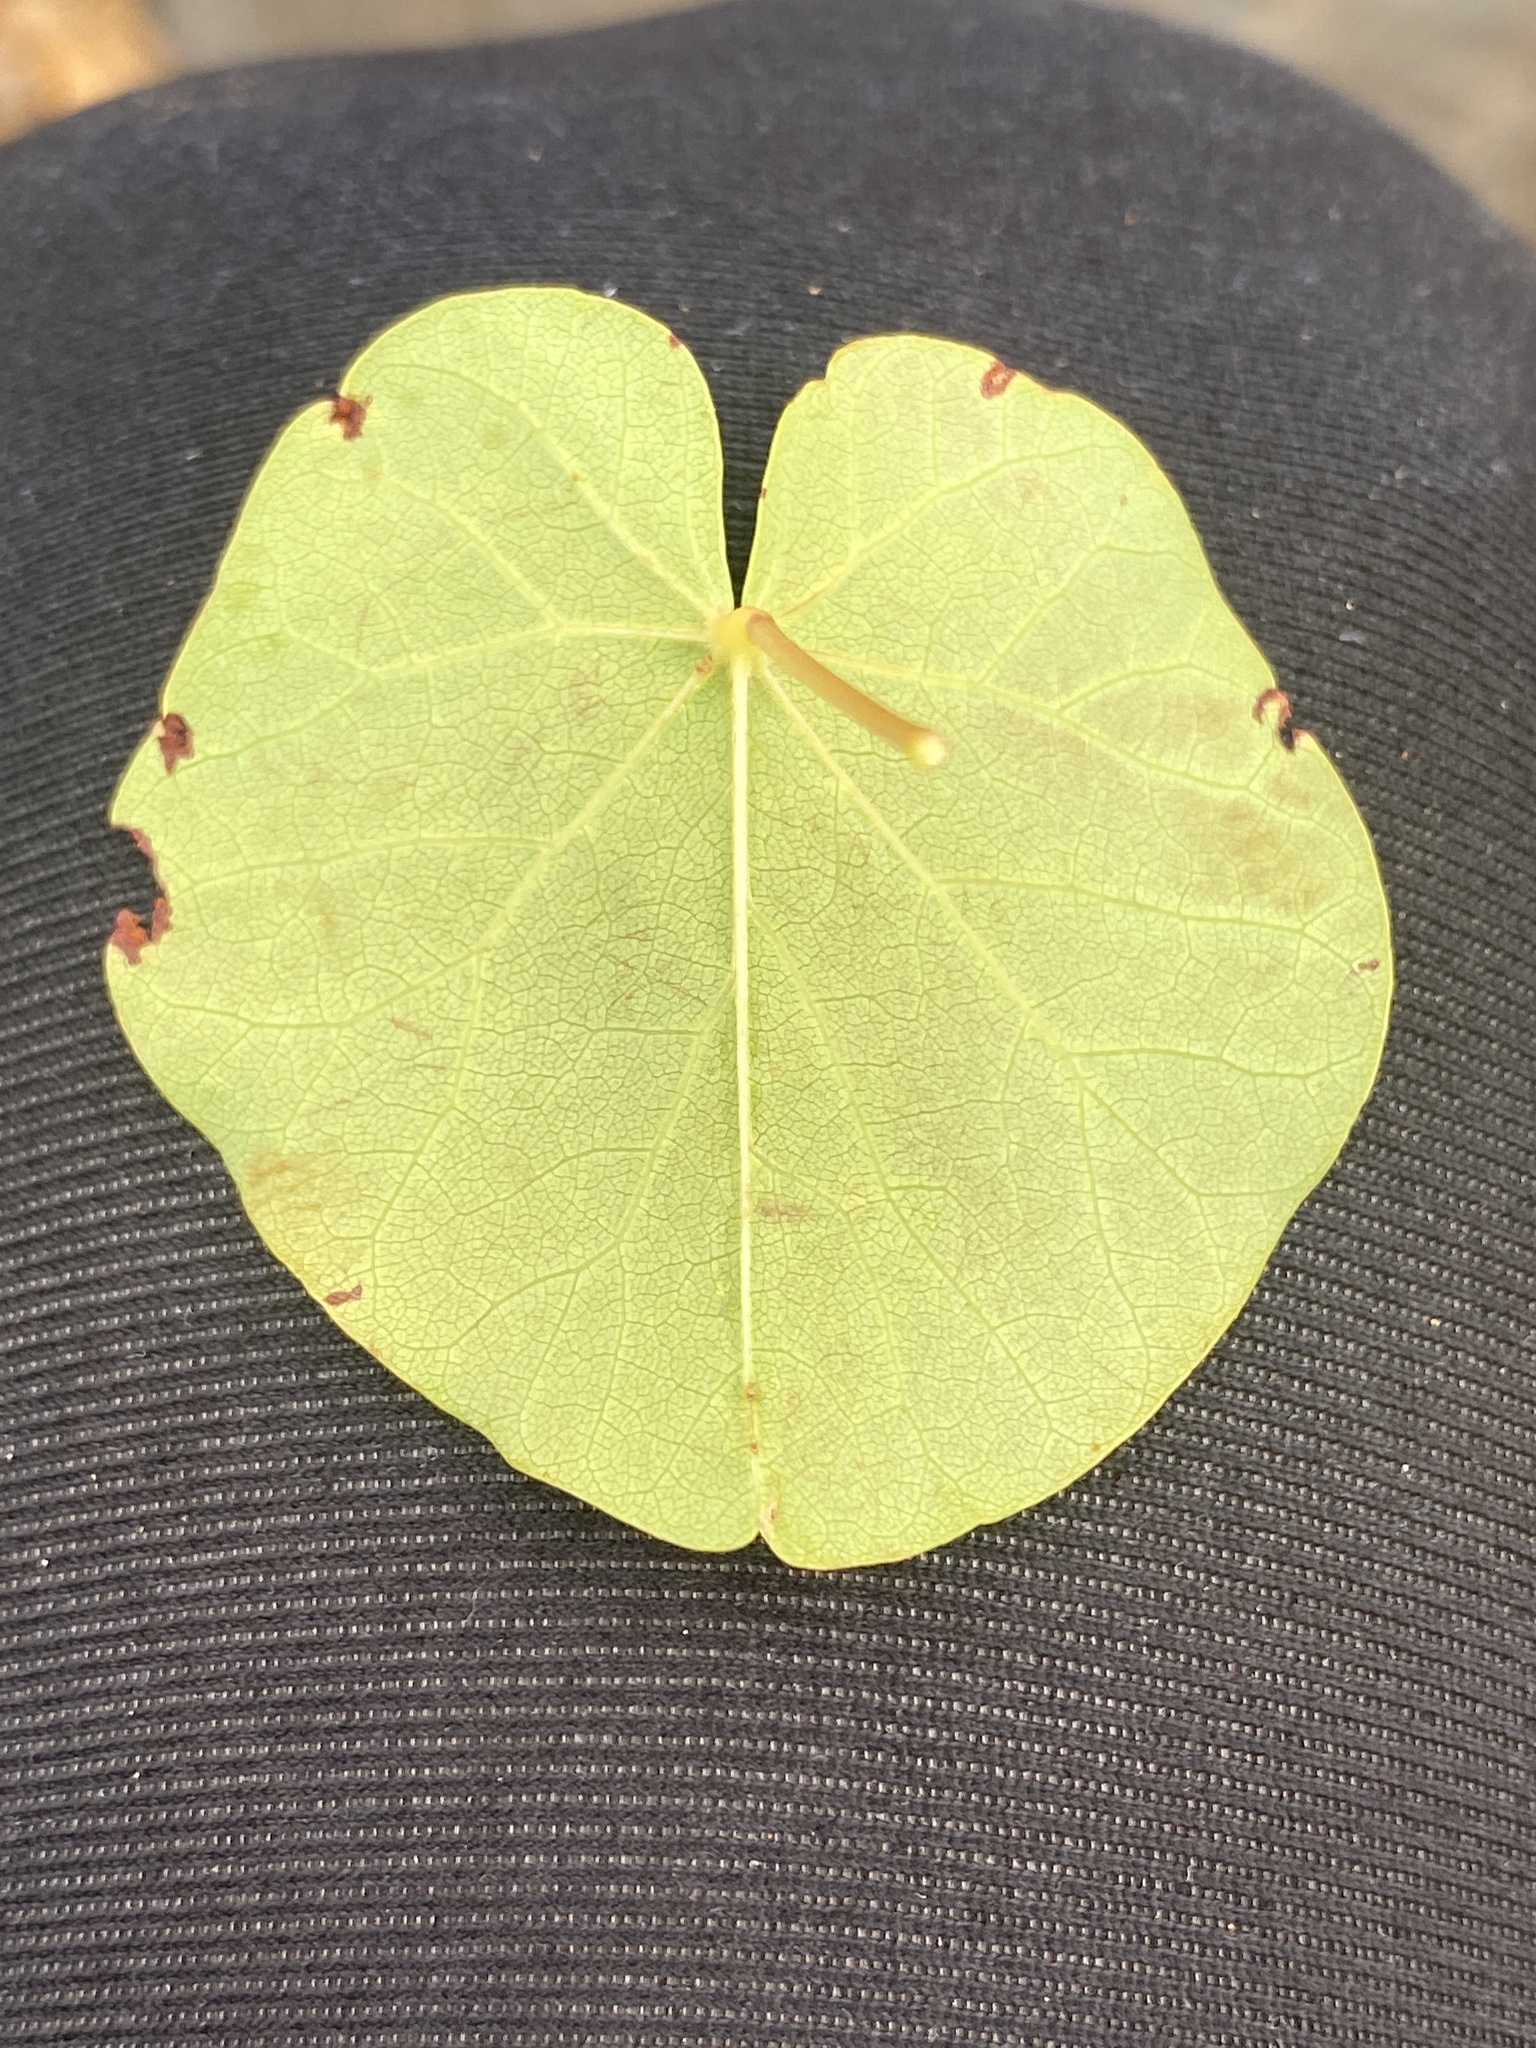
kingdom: Plantae
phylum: Tracheophyta
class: Magnoliopsida
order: Fabales
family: Fabaceae
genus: Cercis
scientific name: Cercis occidentalis
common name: California redbud
